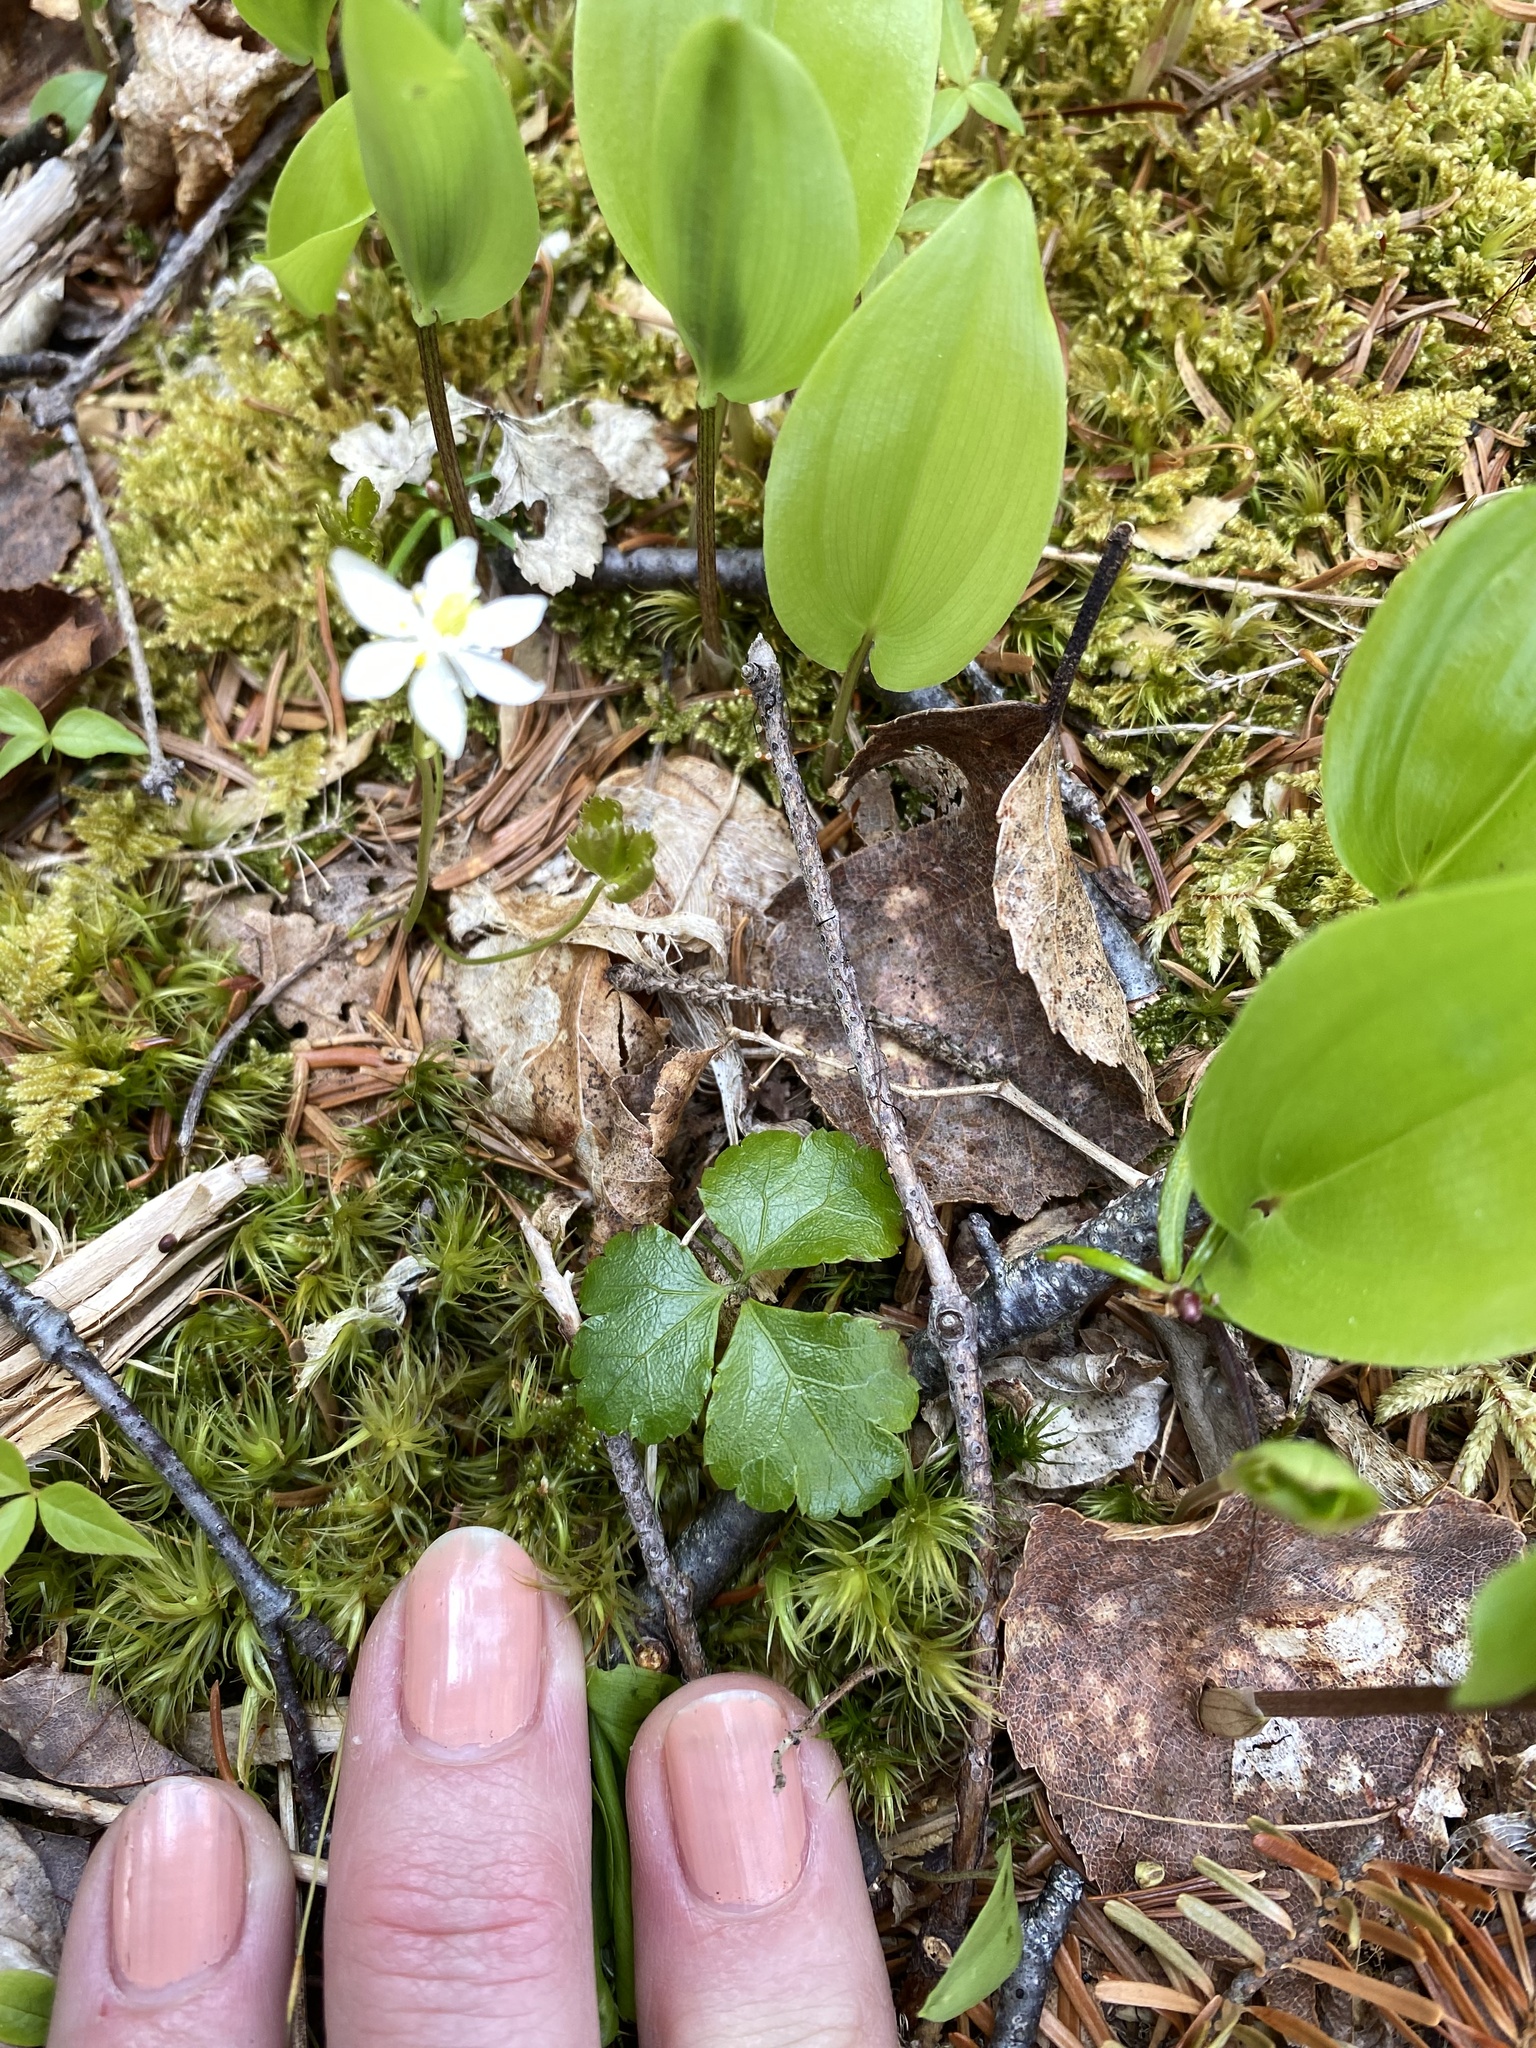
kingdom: Plantae
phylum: Tracheophyta
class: Magnoliopsida
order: Ranunculales
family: Ranunculaceae
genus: Coptis
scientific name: Coptis trifolia
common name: Canker-root
